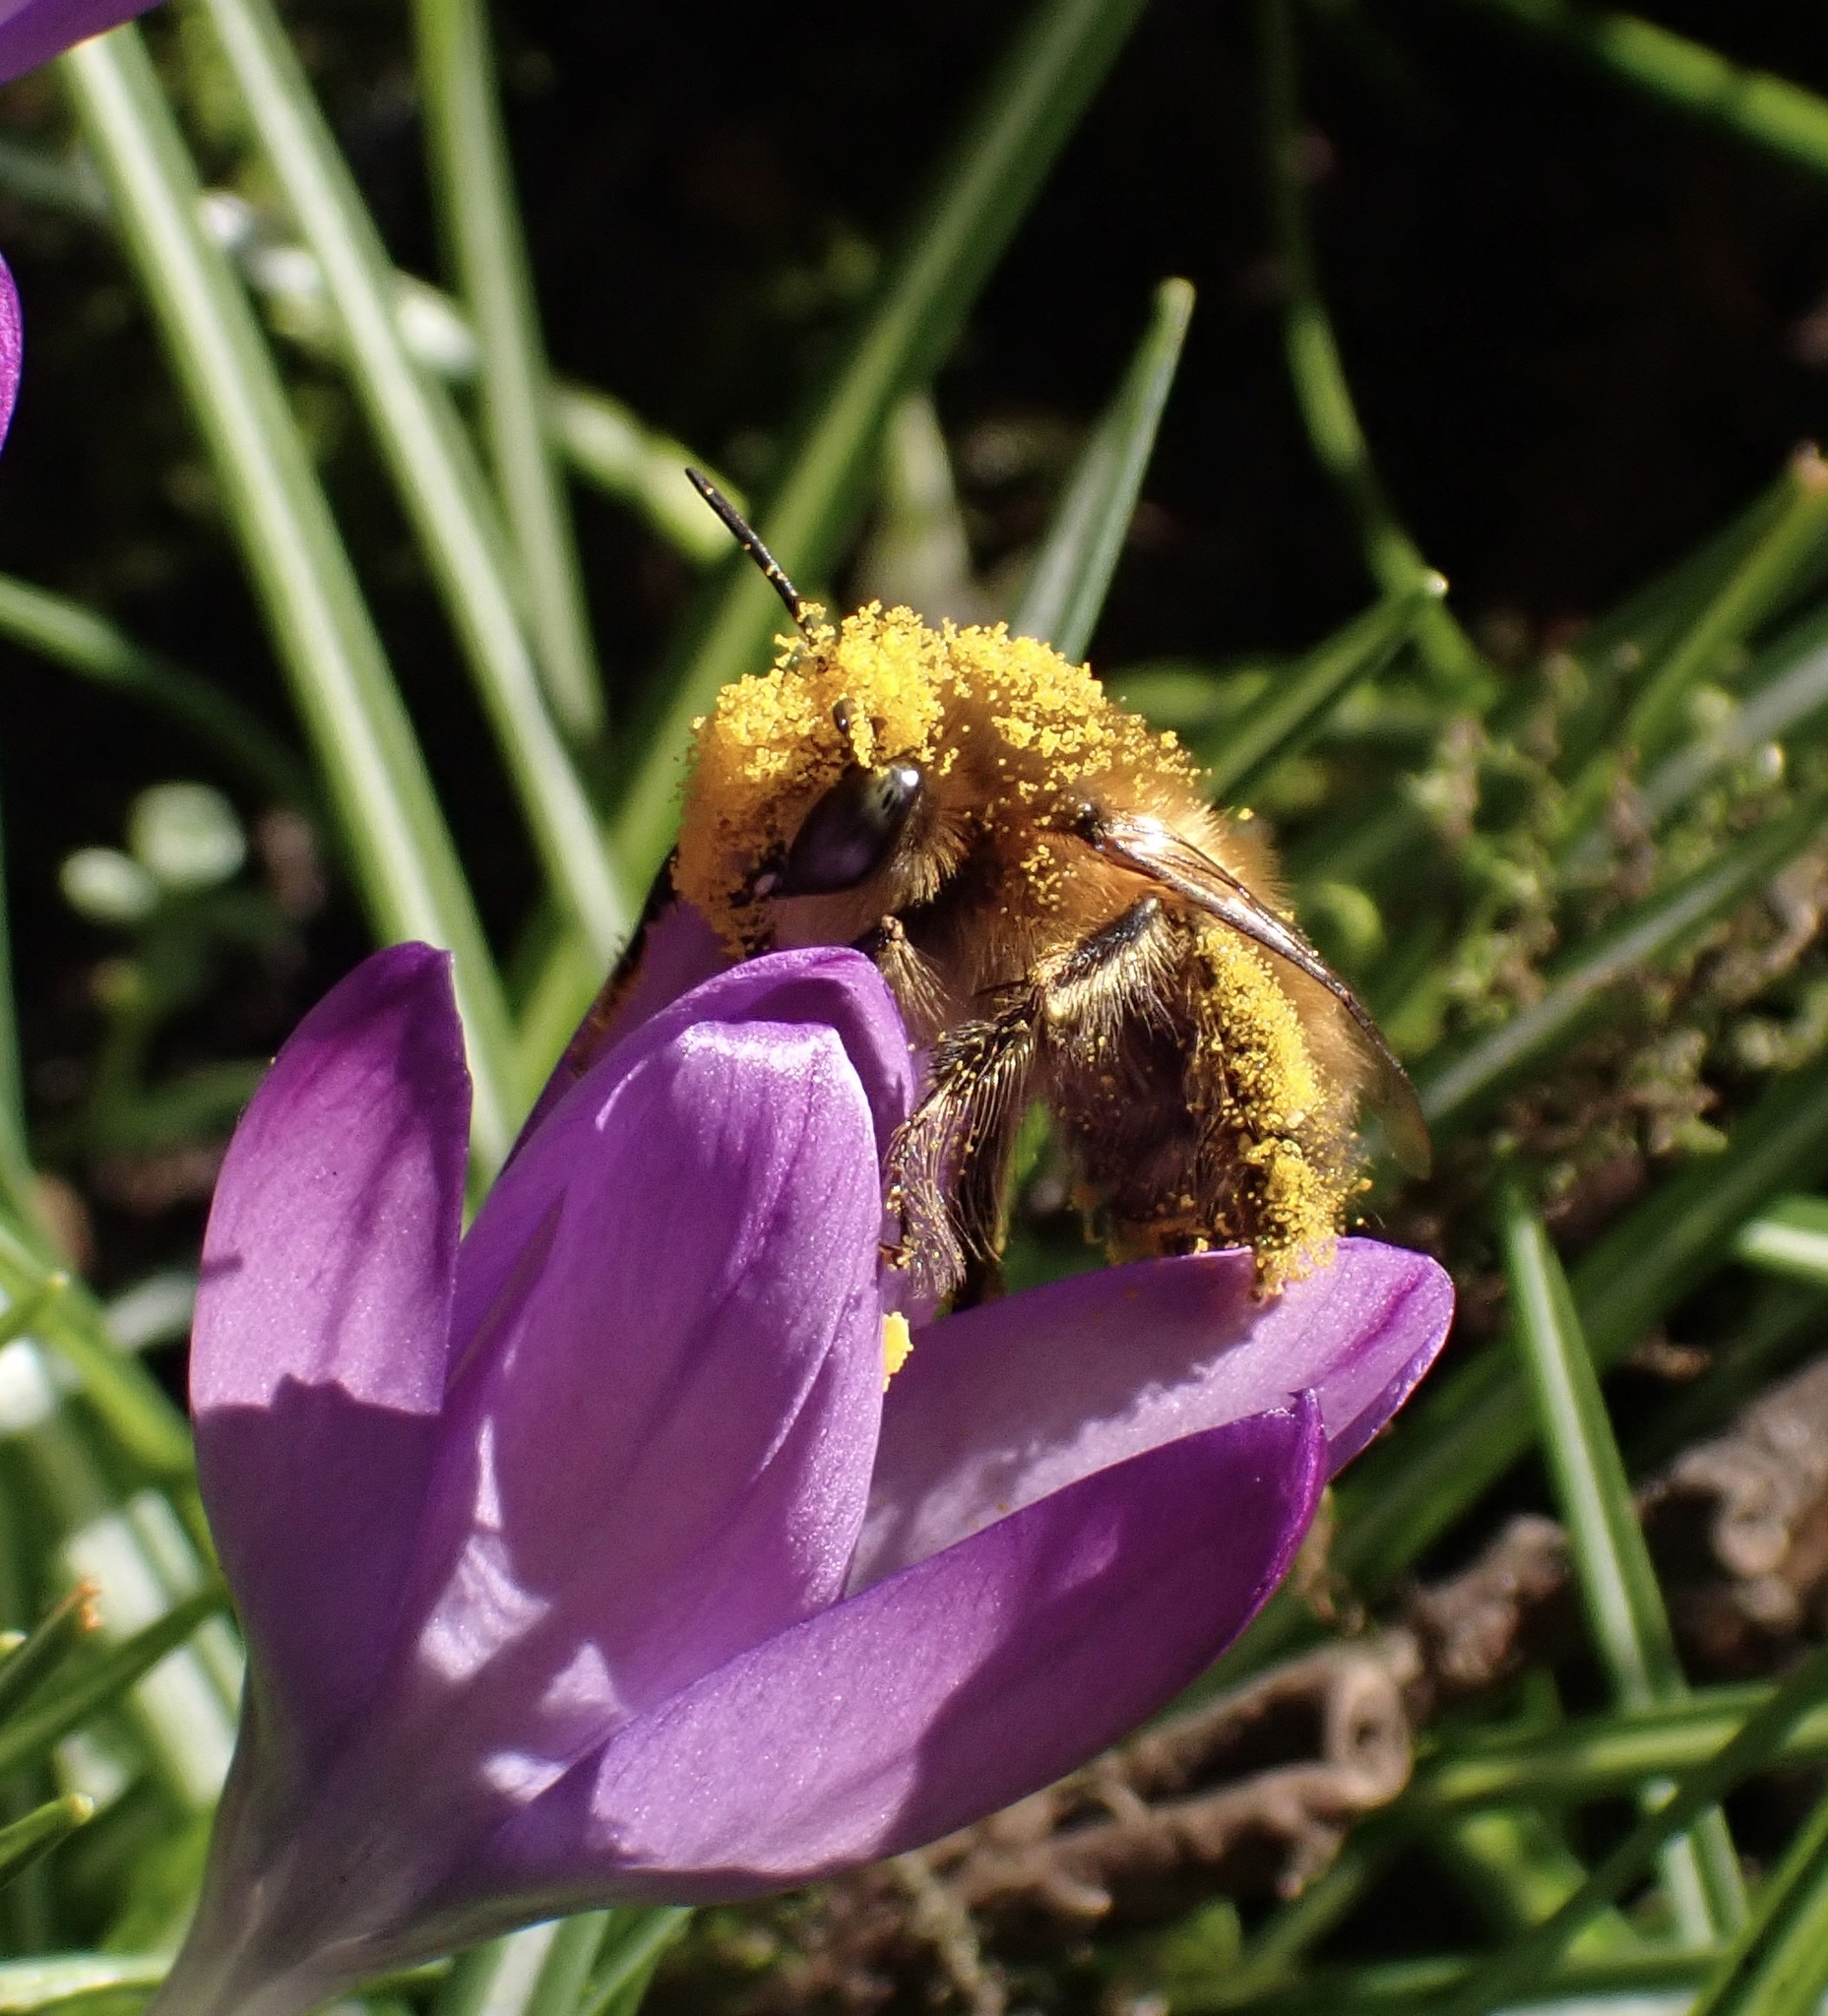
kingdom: Animalia
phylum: Arthropoda
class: Insecta
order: Hymenoptera
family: Apidae
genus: Anthophora
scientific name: Anthophora plumipes
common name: Hairy-footed flower bee
